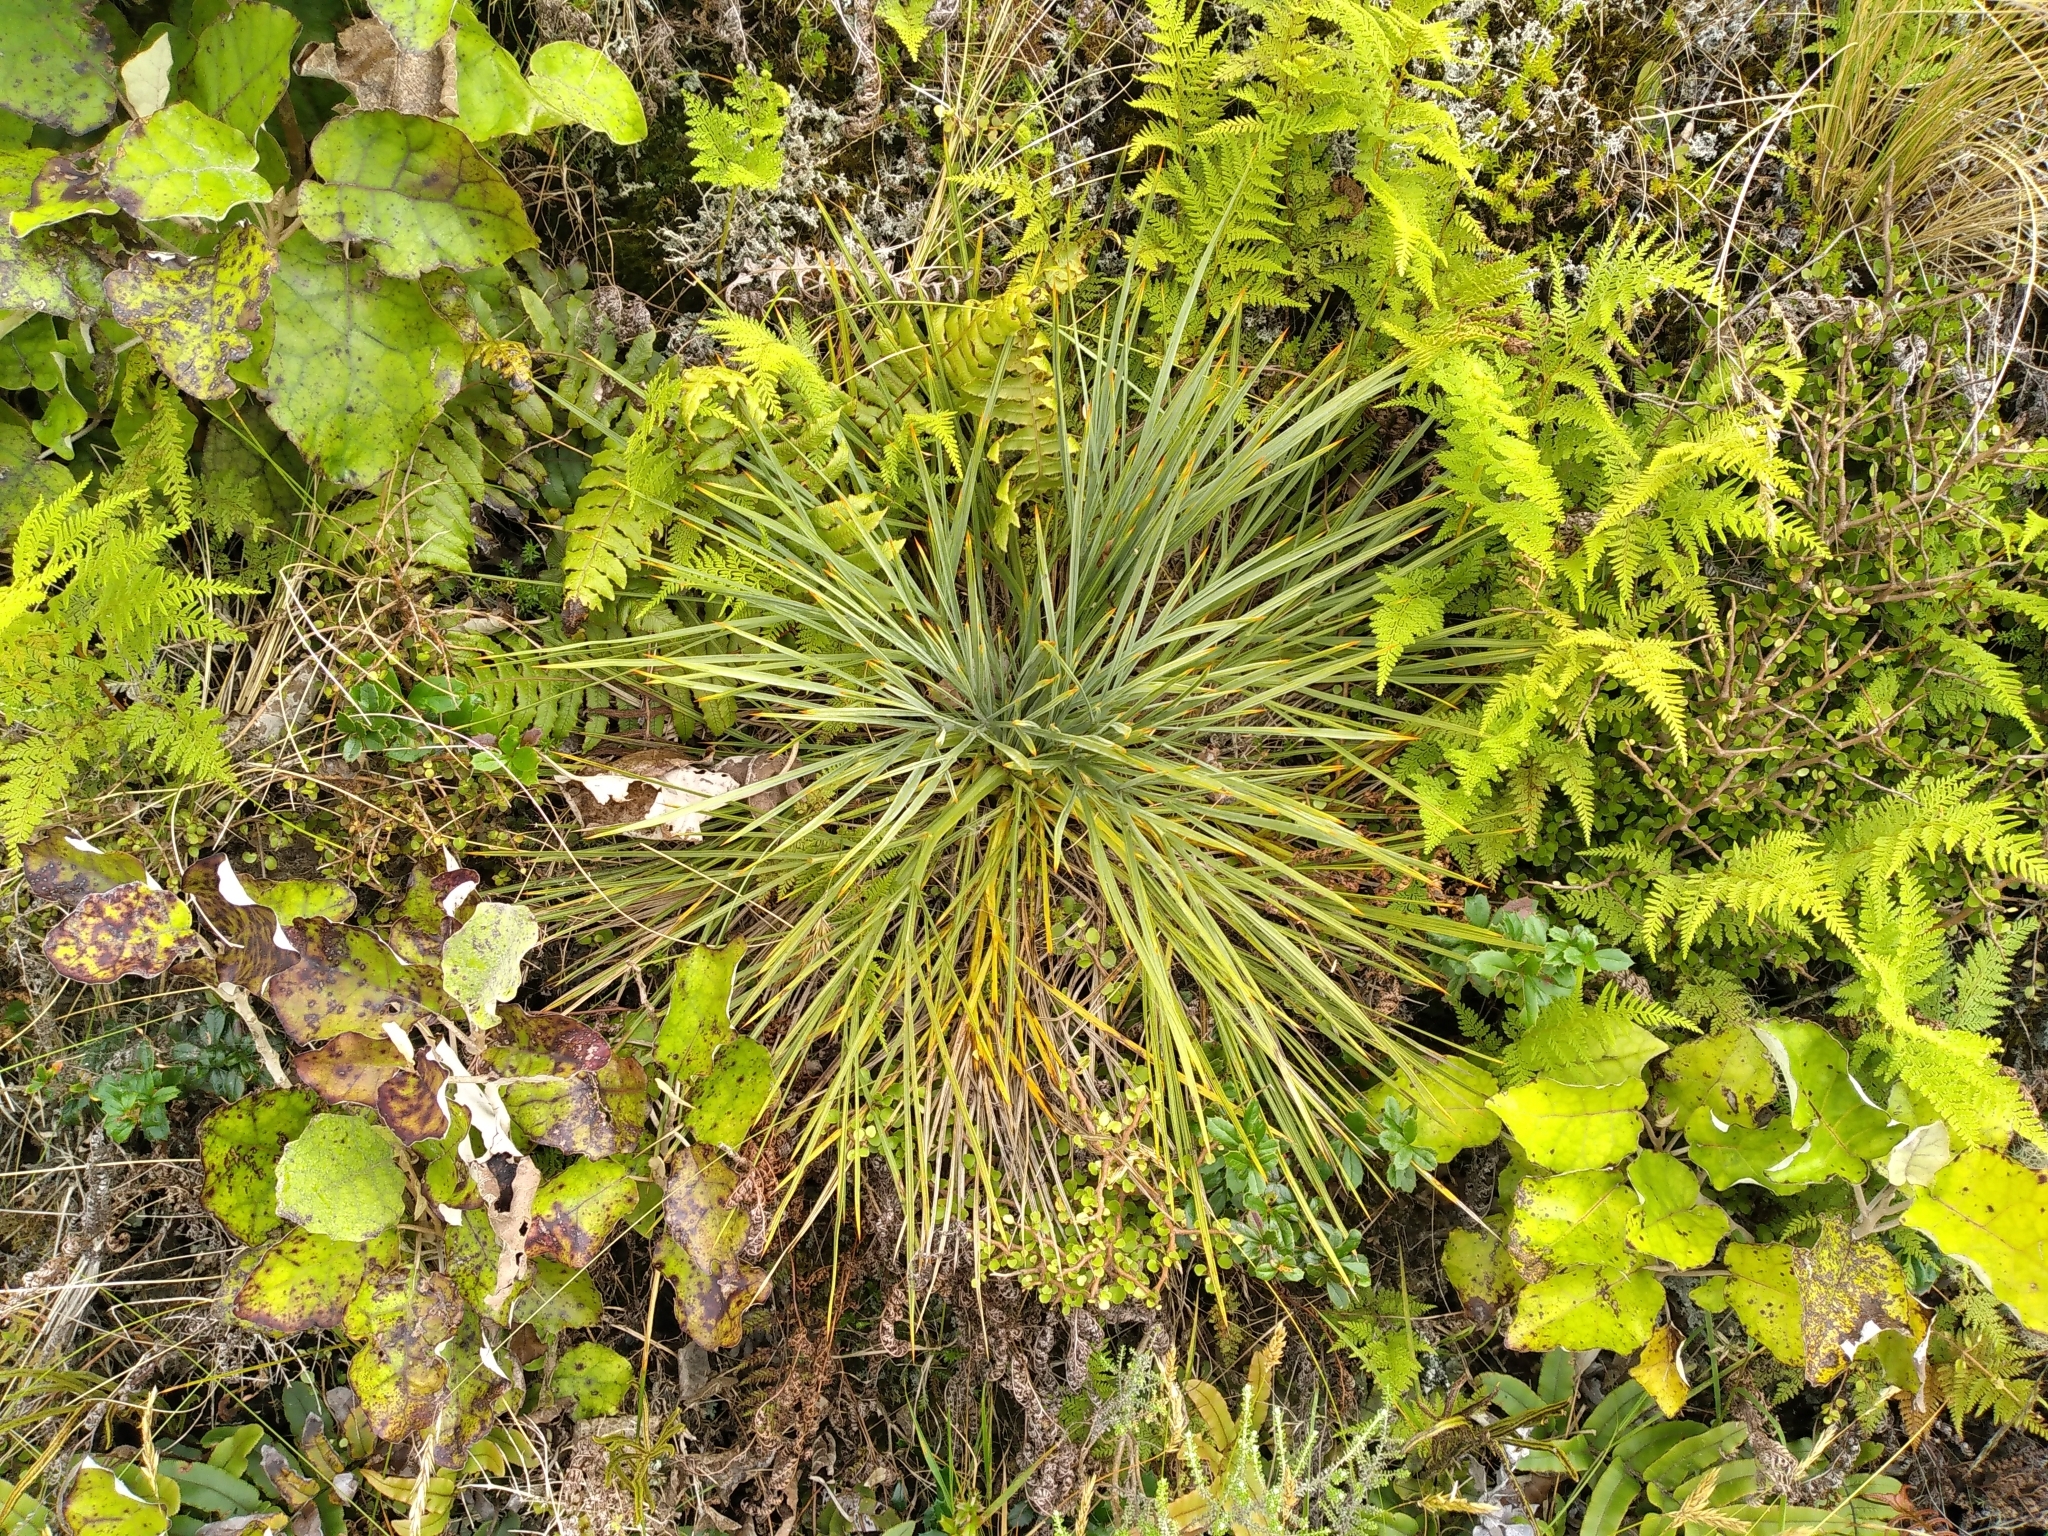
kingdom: Plantae
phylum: Tracheophyta
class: Magnoliopsida
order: Apiales
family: Apiaceae
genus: Aciphylla
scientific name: Aciphylla squarrosa
